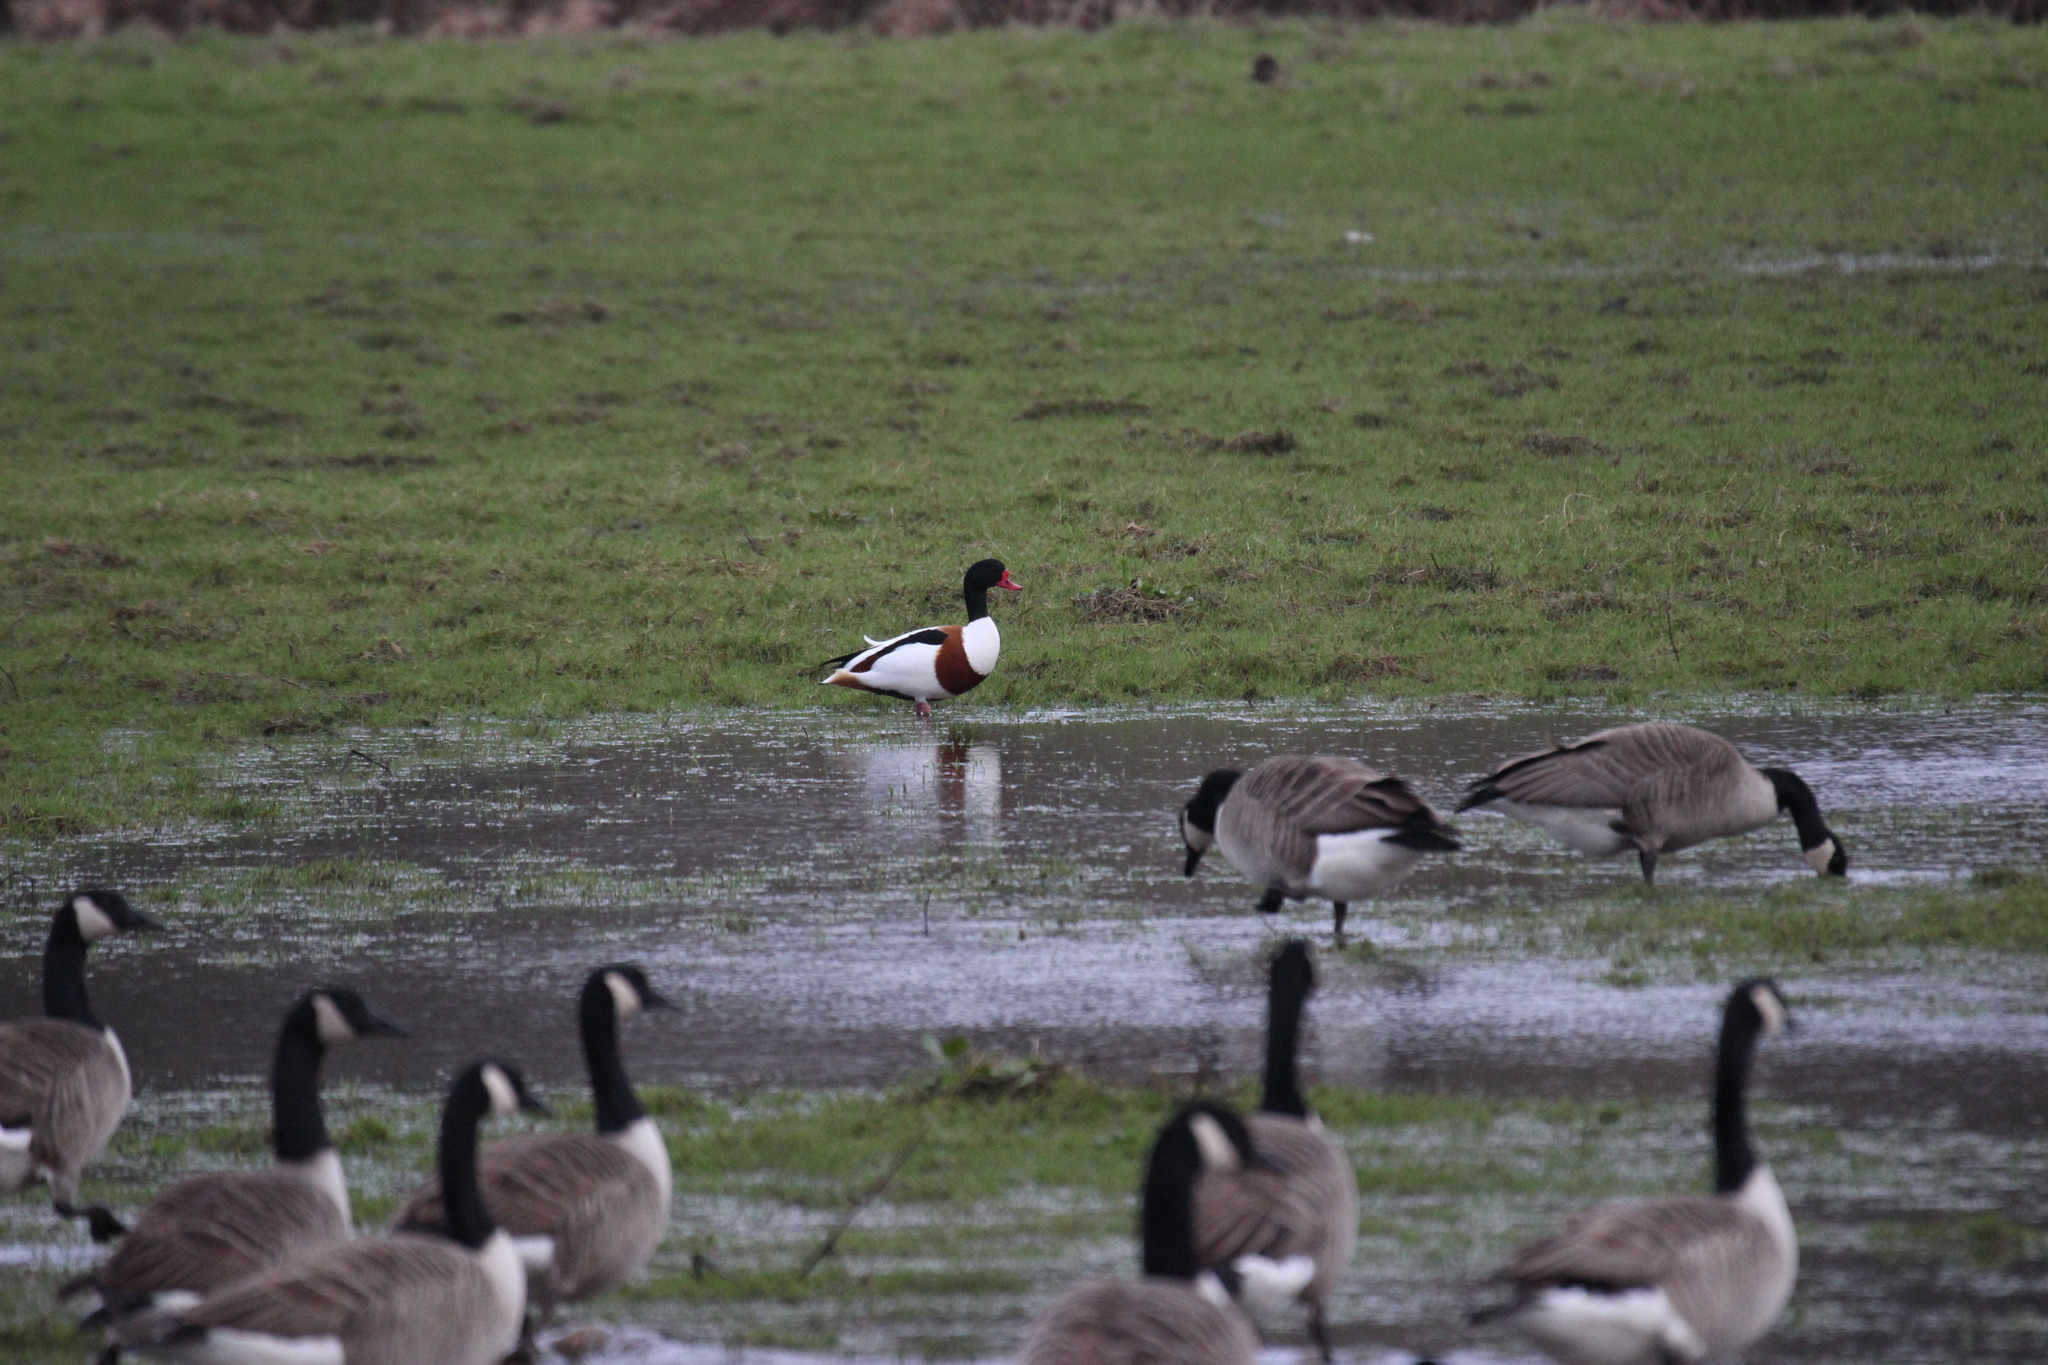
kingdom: Animalia
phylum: Chordata
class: Aves
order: Anseriformes
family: Anatidae
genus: Tadorna
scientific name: Tadorna tadorna
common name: Common shelduck
